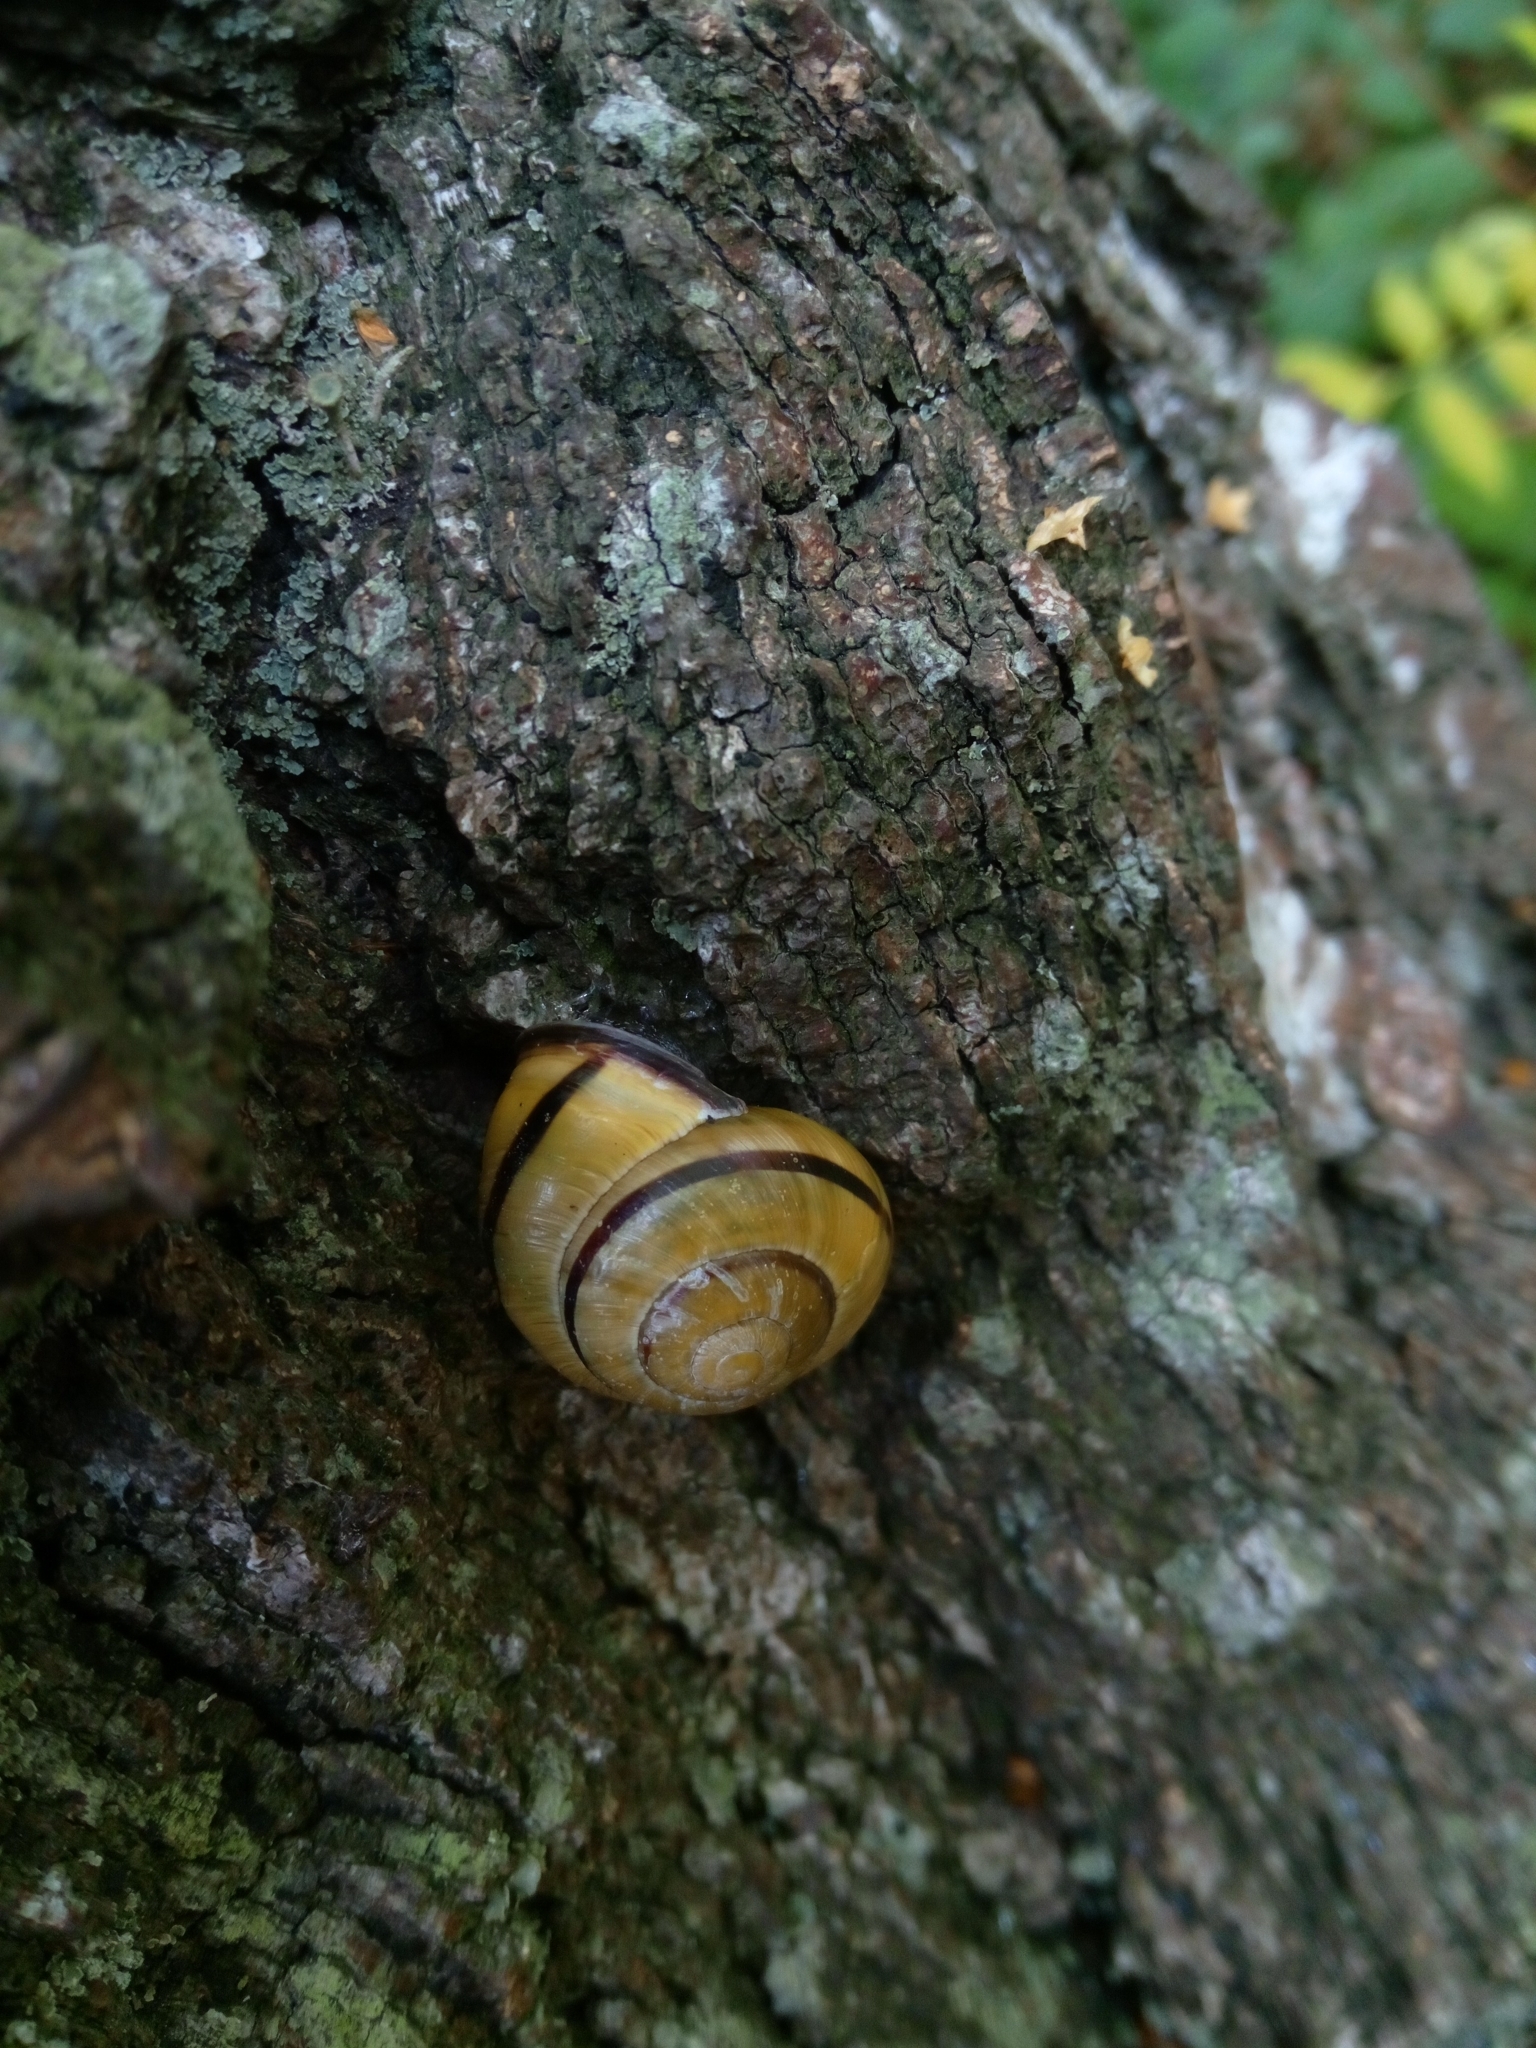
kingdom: Animalia
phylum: Mollusca
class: Gastropoda
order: Stylommatophora
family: Helicidae
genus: Cepaea
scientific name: Cepaea nemoralis
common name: Grovesnail
